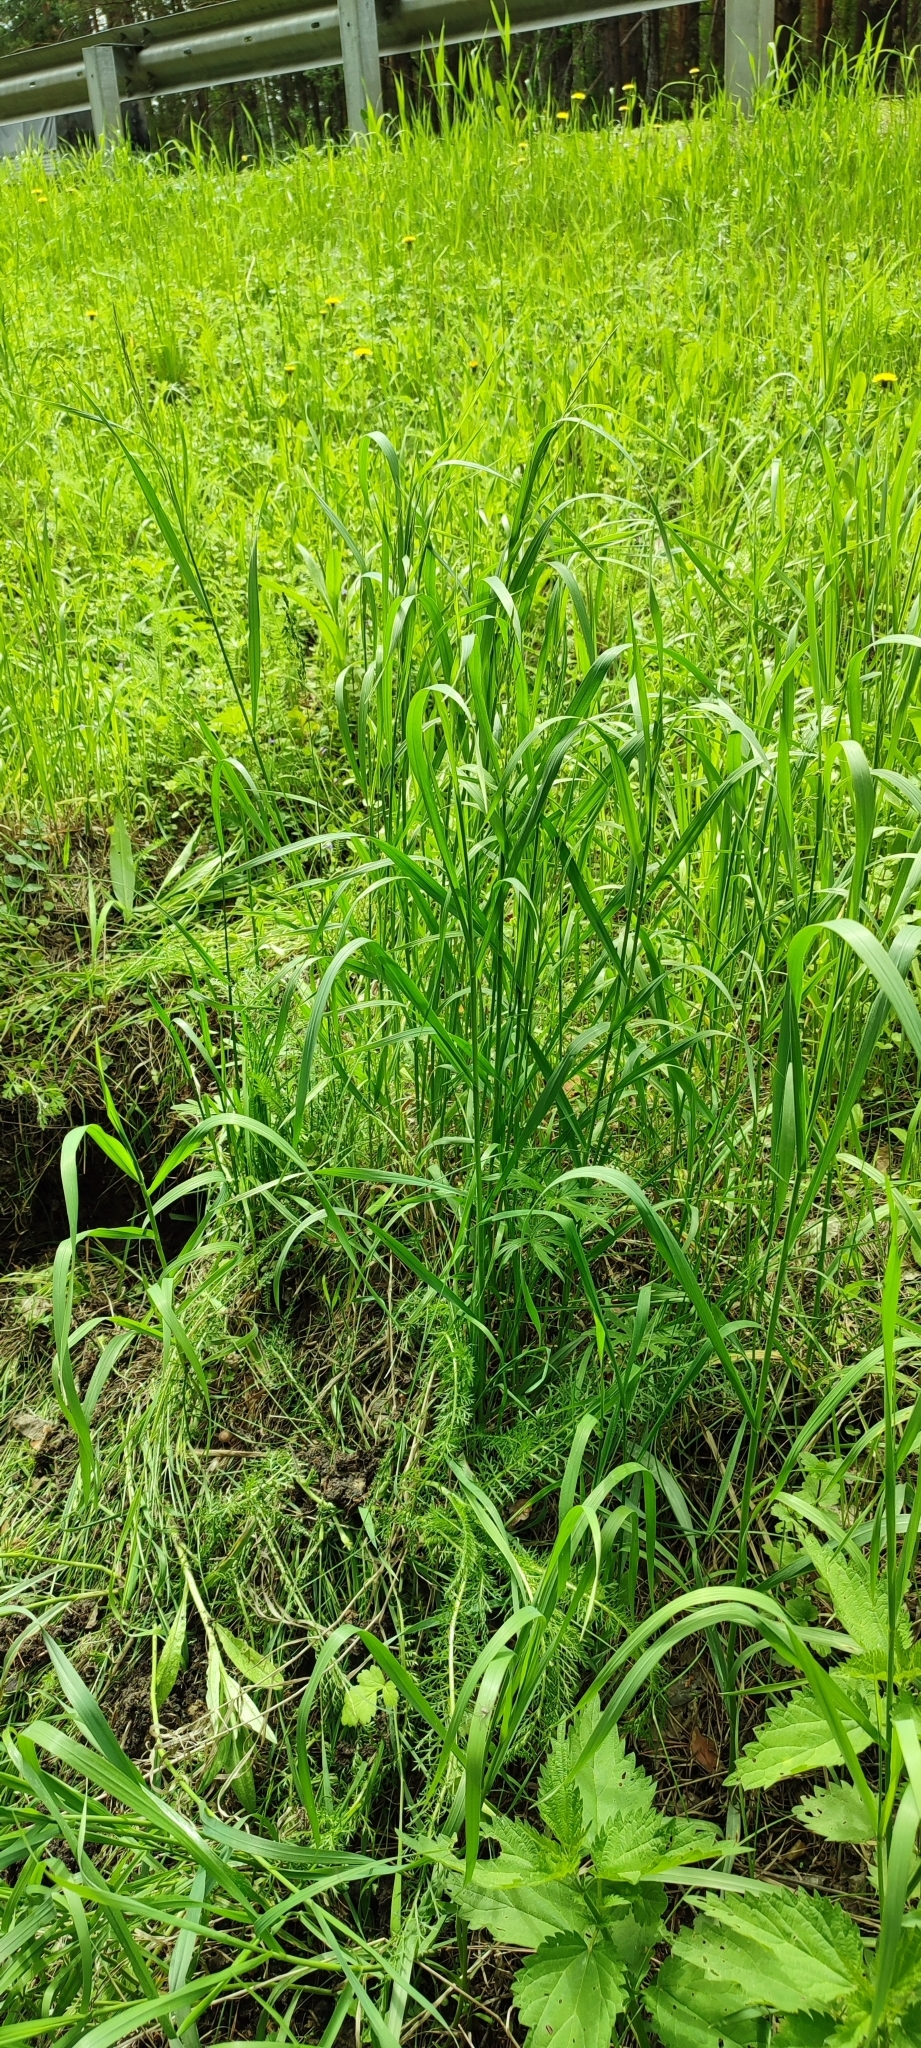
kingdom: Plantae
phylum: Tracheophyta
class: Liliopsida
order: Poales
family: Poaceae
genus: Bromus
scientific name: Bromus inermis
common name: Smooth brome
